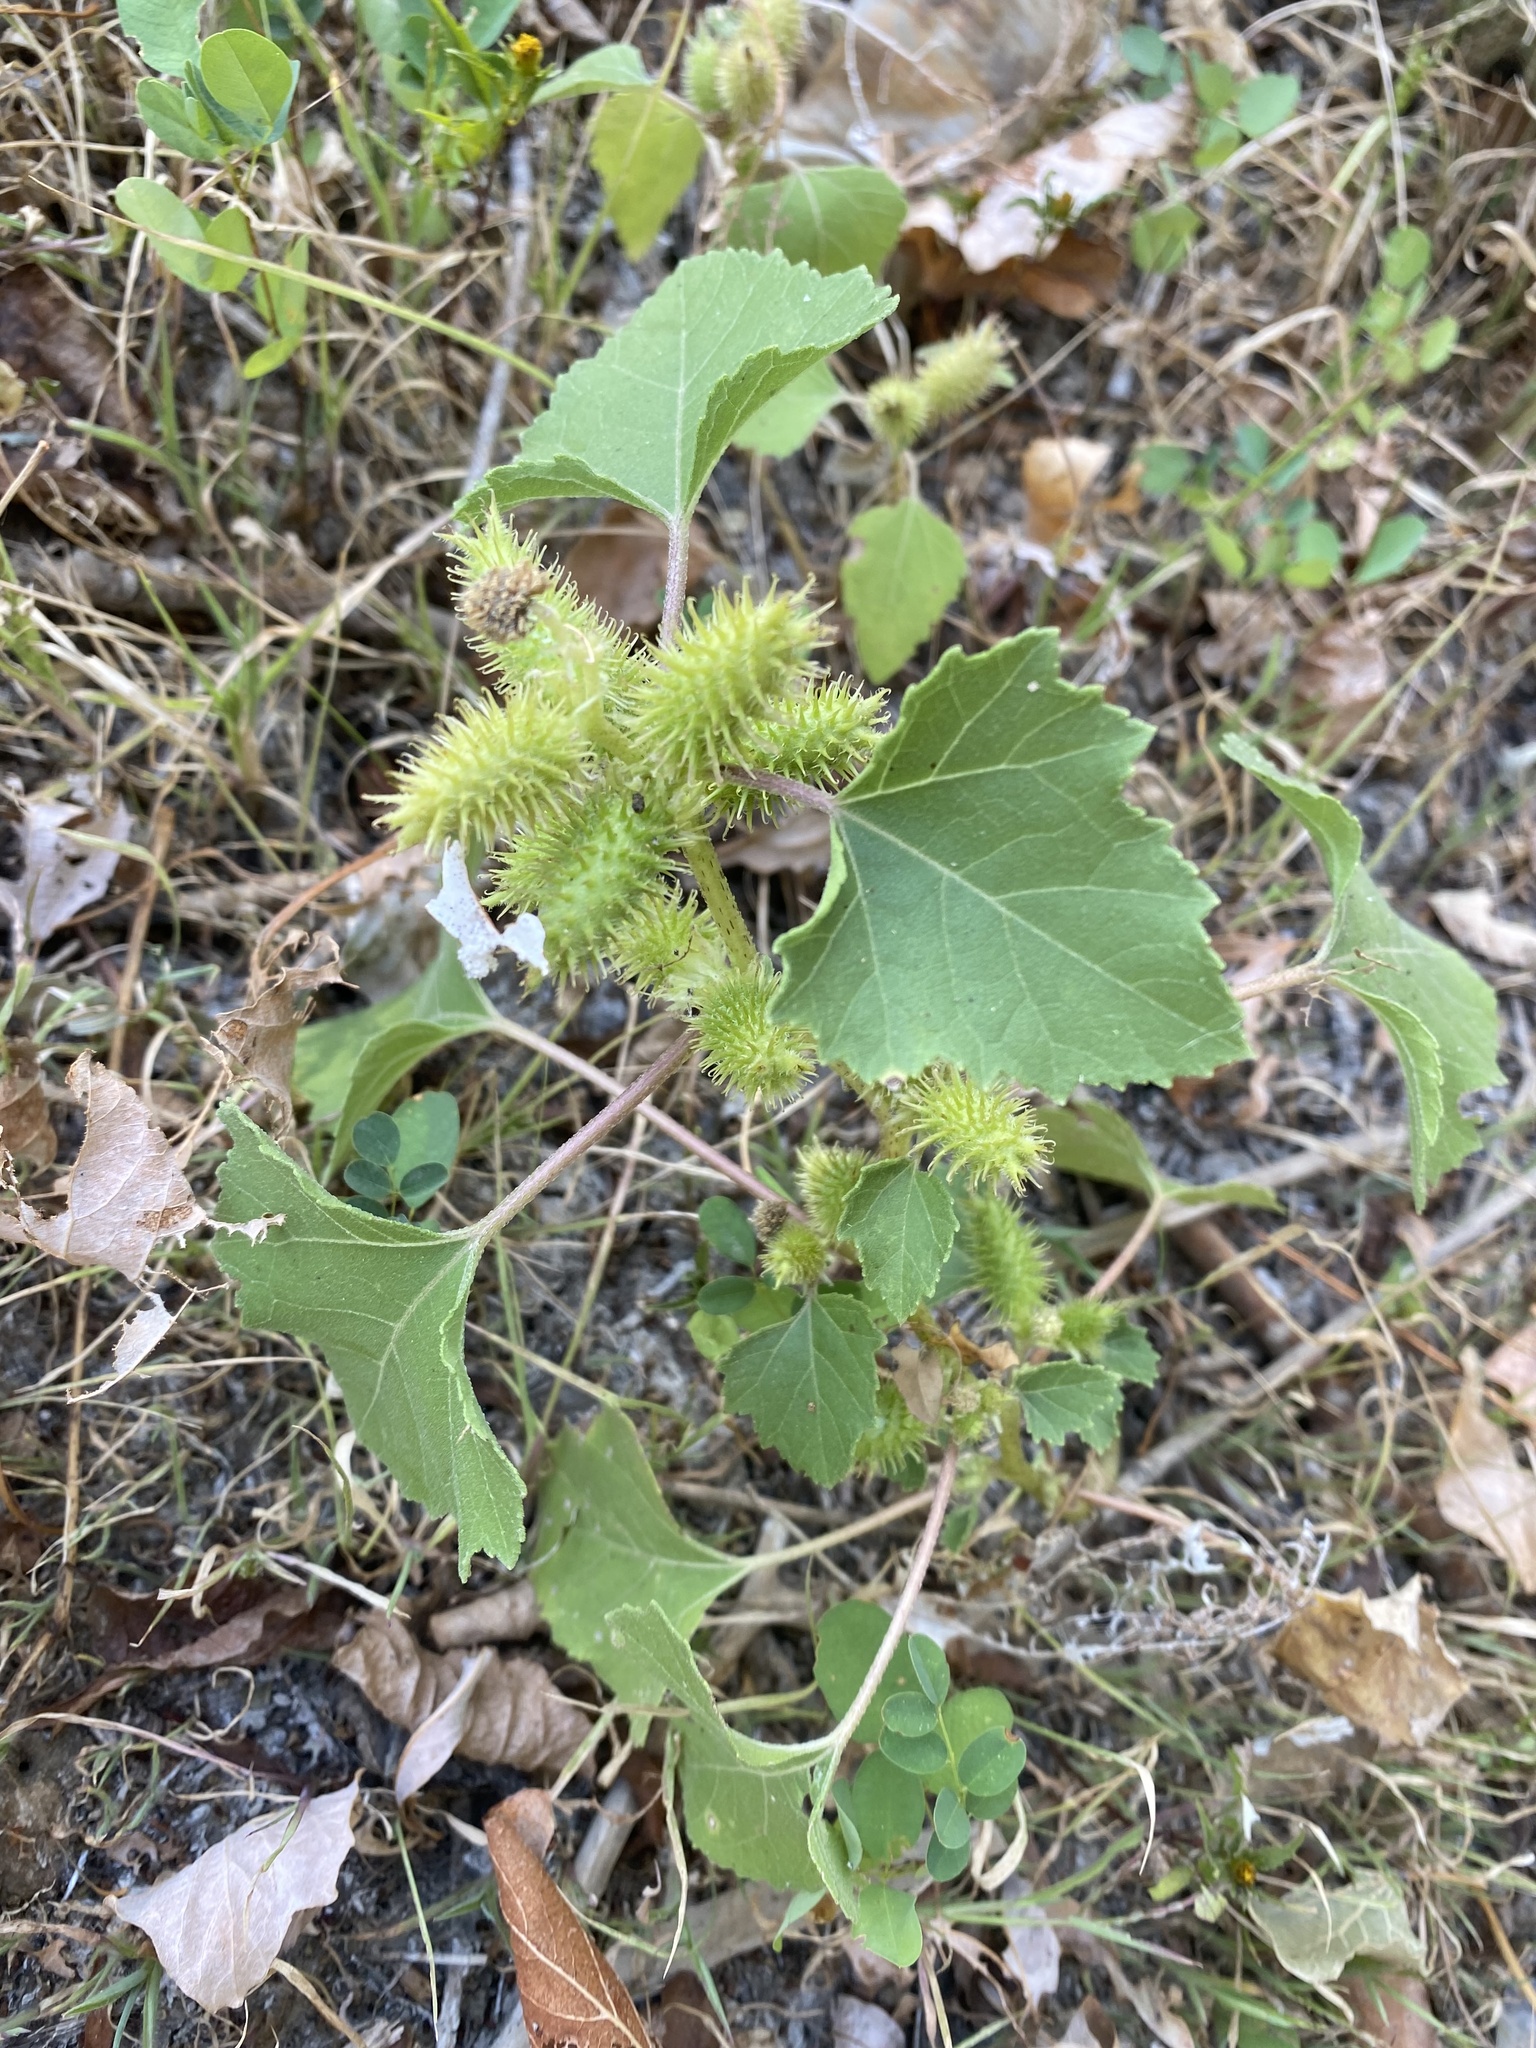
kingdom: Plantae
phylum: Tracheophyta
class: Magnoliopsida
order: Asterales
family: Asteraceae
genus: Xanthium
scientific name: Xanthium orientale
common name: Californian burr
